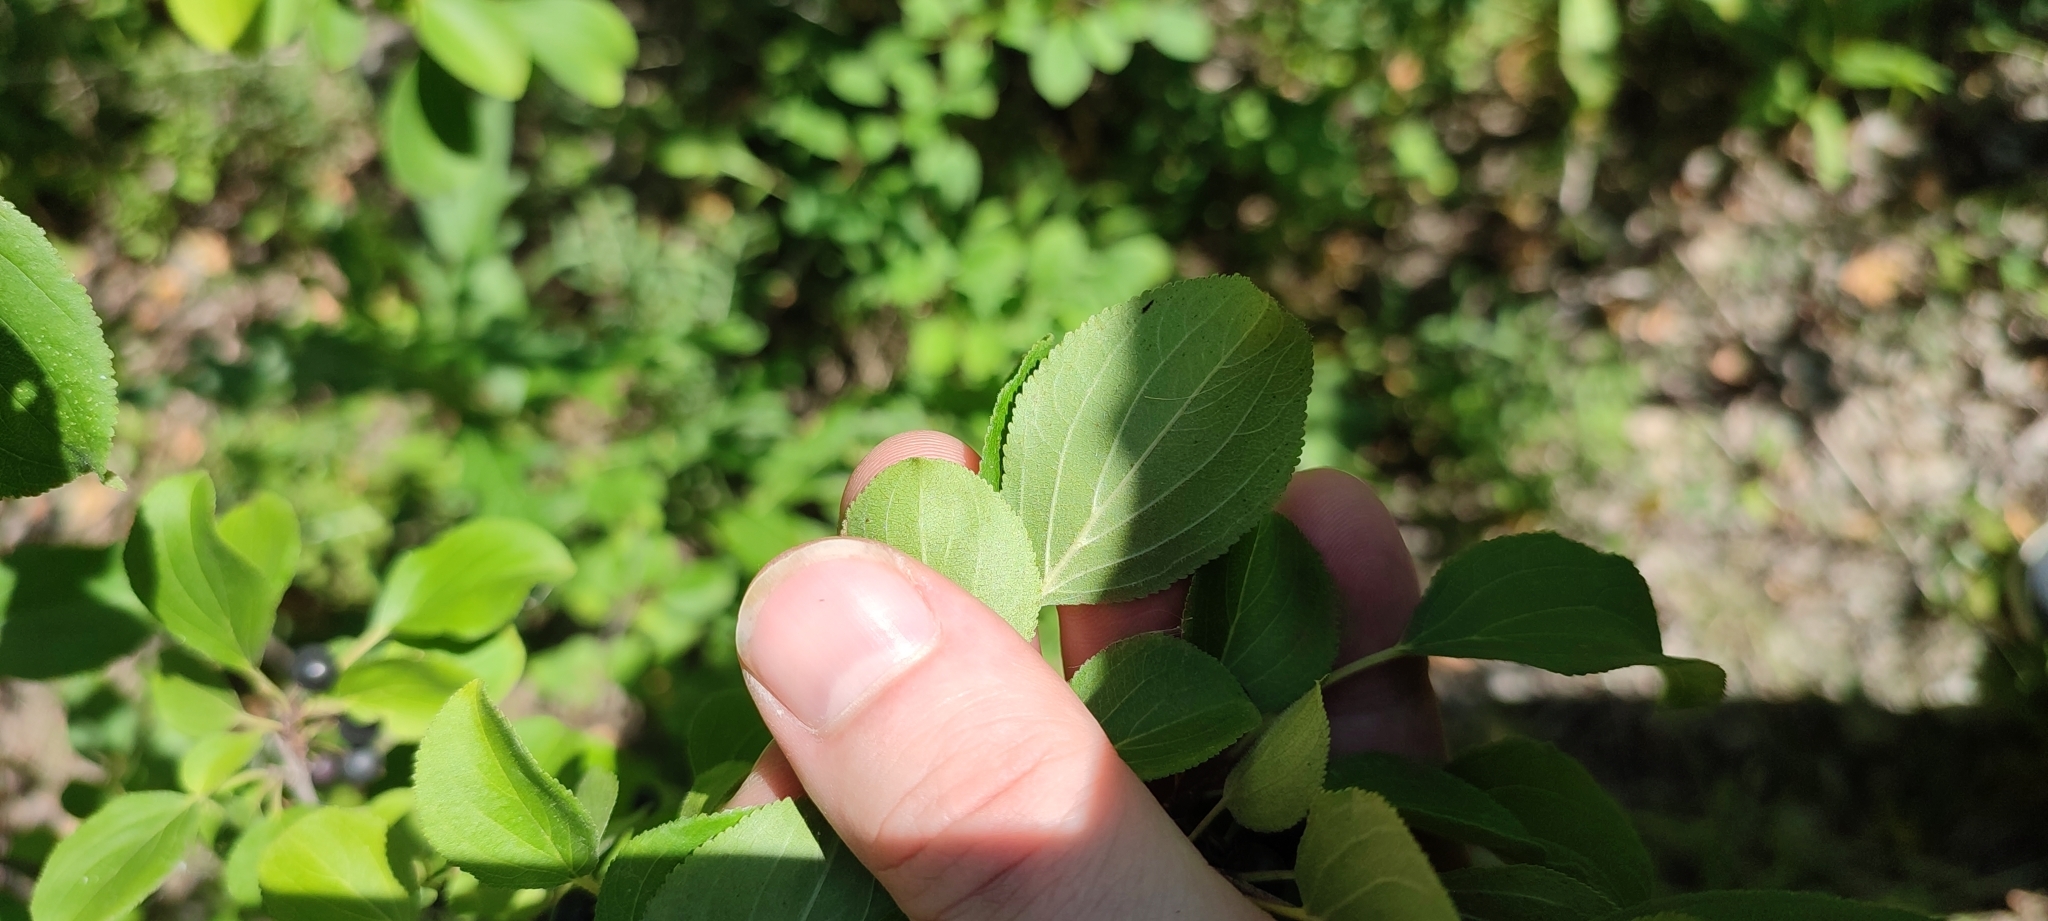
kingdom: Plantae
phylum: Tracheophyta
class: Magnoliopsida
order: Rosales
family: Rhamnaceae
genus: Rhamnus
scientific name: Rhamnus cathartica
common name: Common buckthorn
